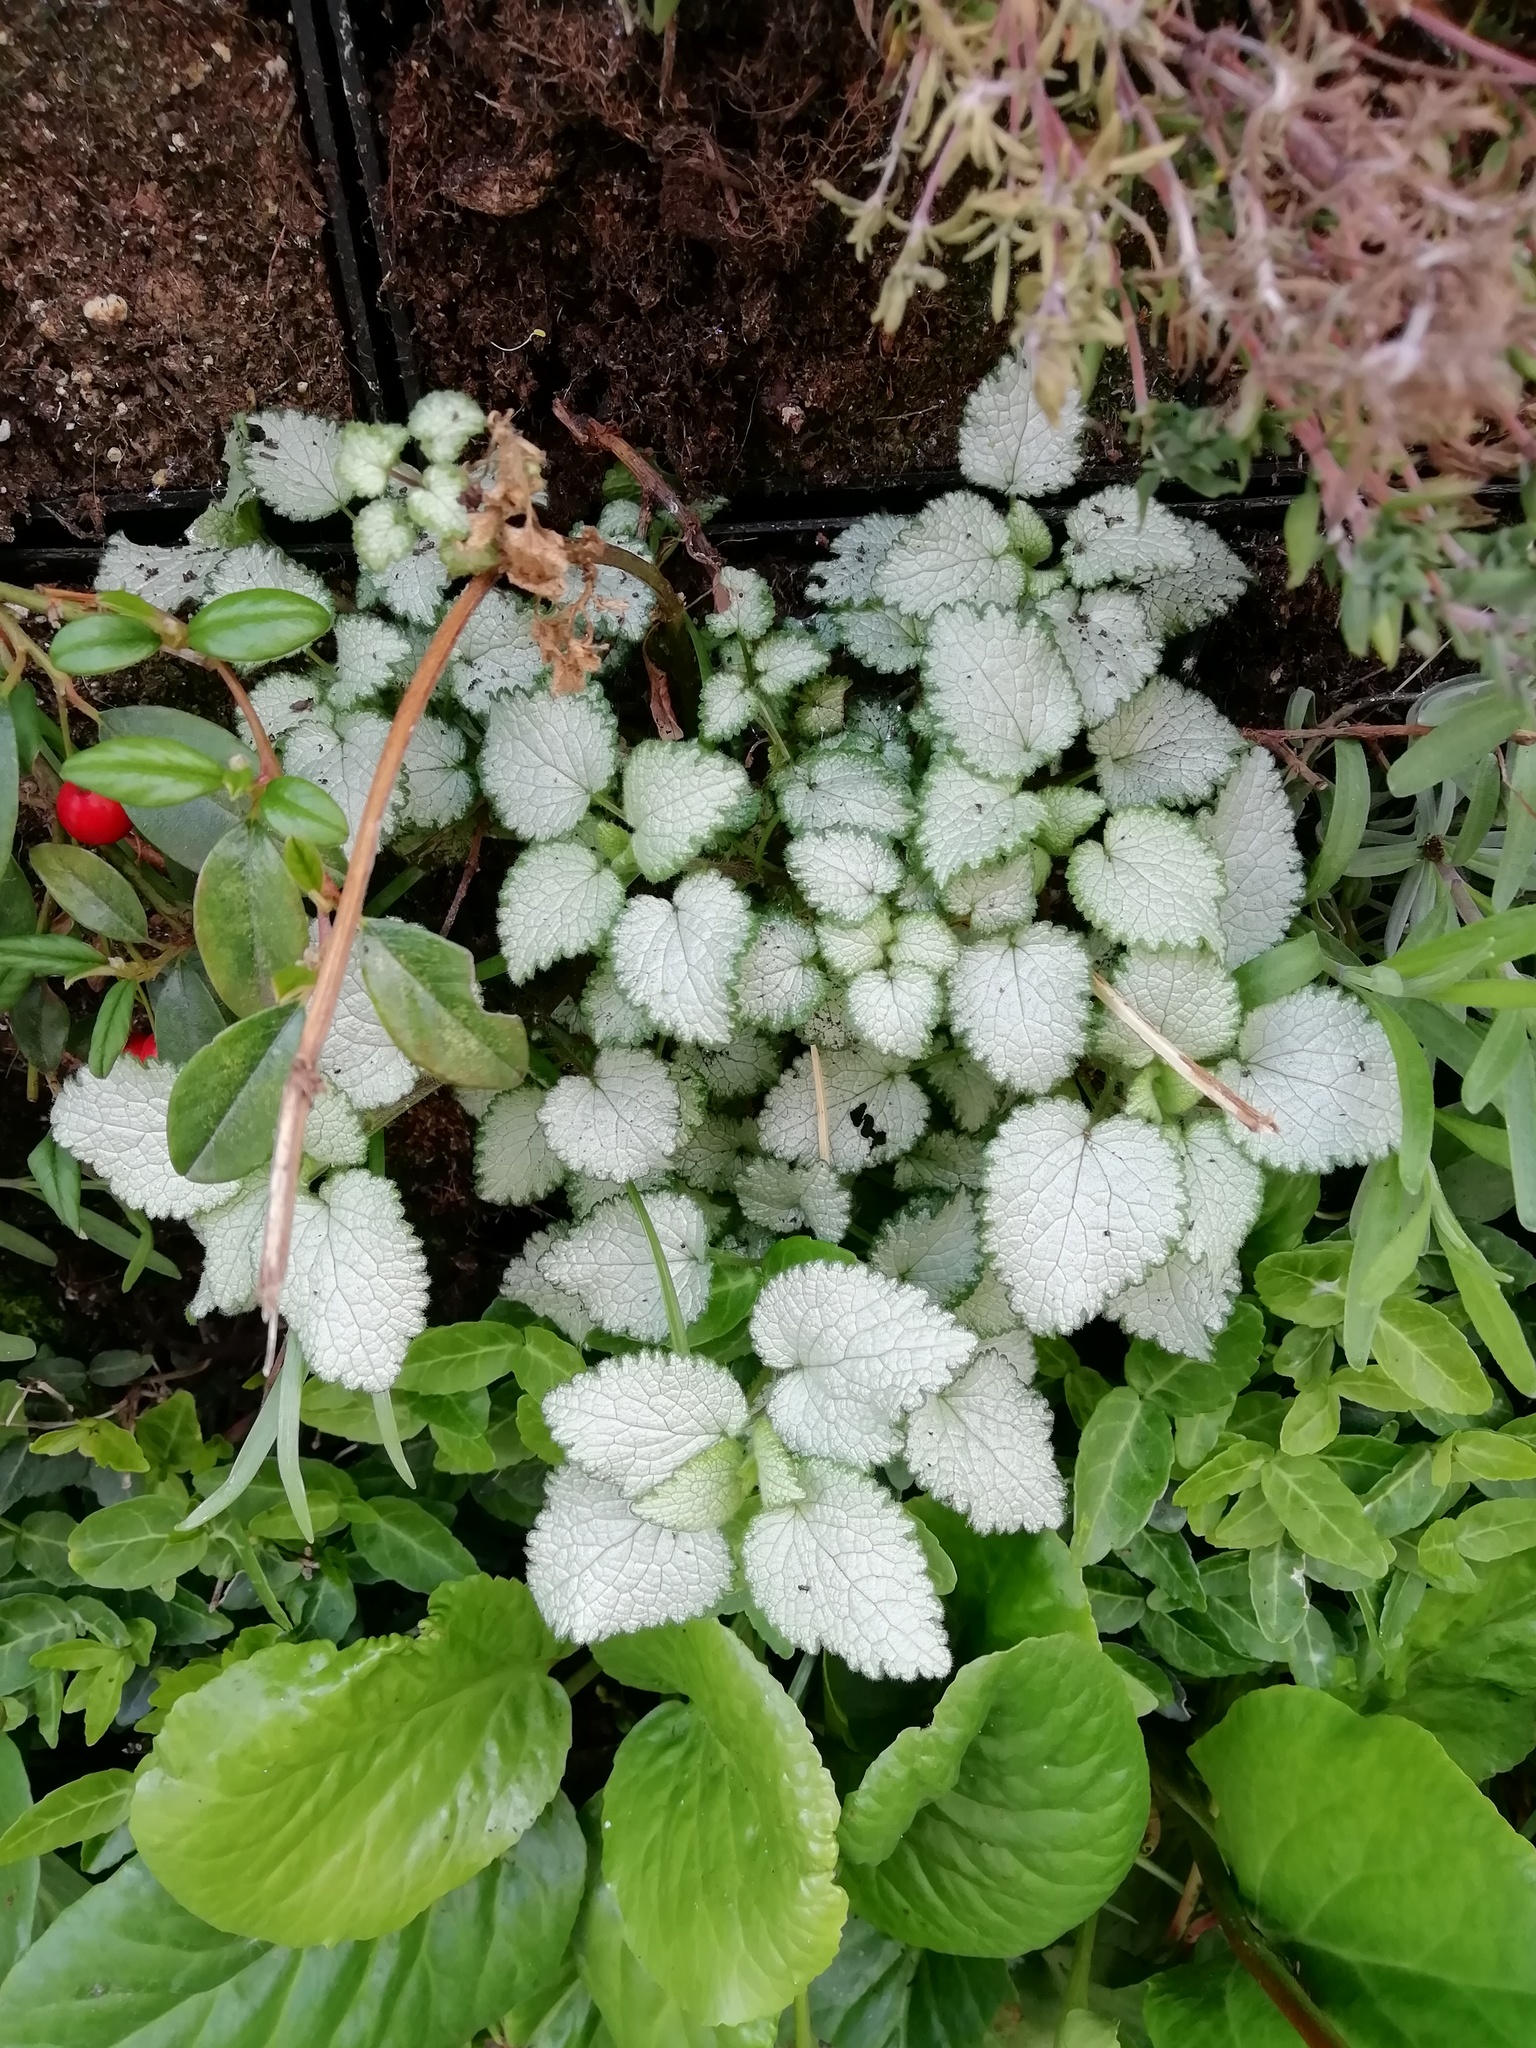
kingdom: Plantae
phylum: Tracheophyta
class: Magnoliopsida
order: Lamiales
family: Lamiaceae
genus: Lamium
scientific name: Lamium maculatum
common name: Spotted dead-nettle
